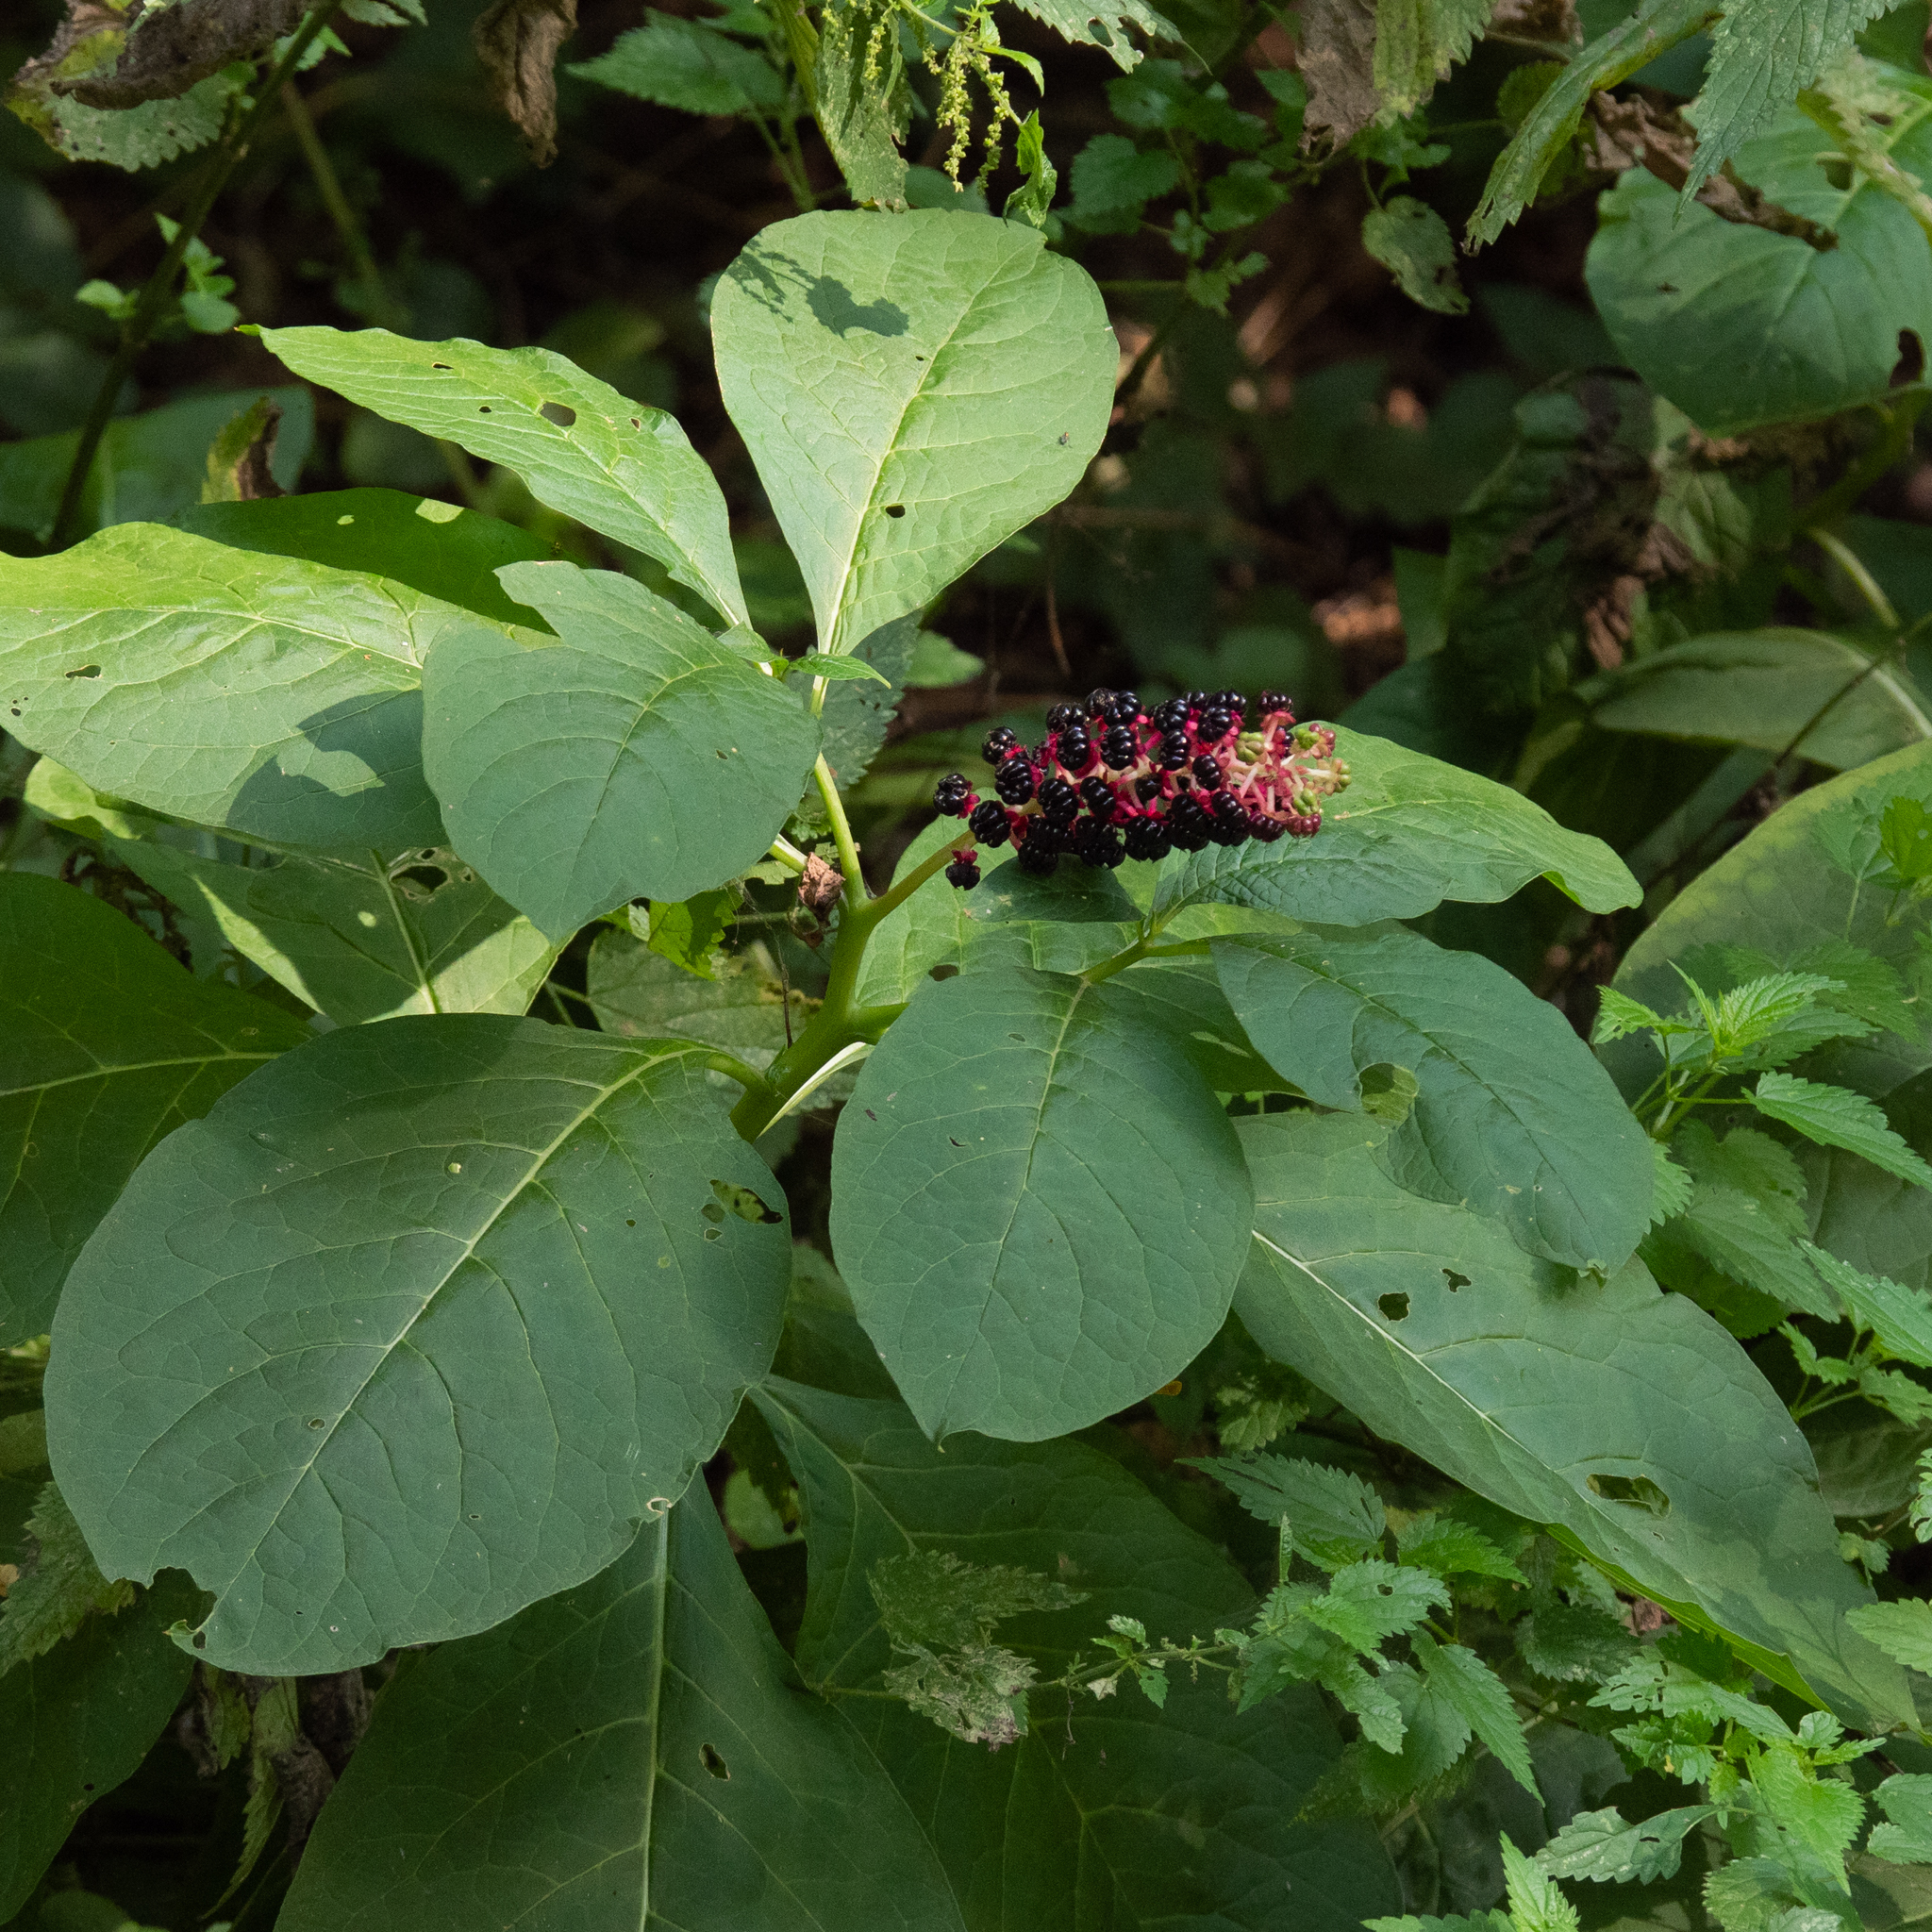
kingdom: Plantae
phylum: Tracheophyta
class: Magnoliopsida
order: Caryophyllales
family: Phytolaccaceae
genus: Phytolacca
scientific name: Phytolacca acinosa
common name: Indian pokeweed
